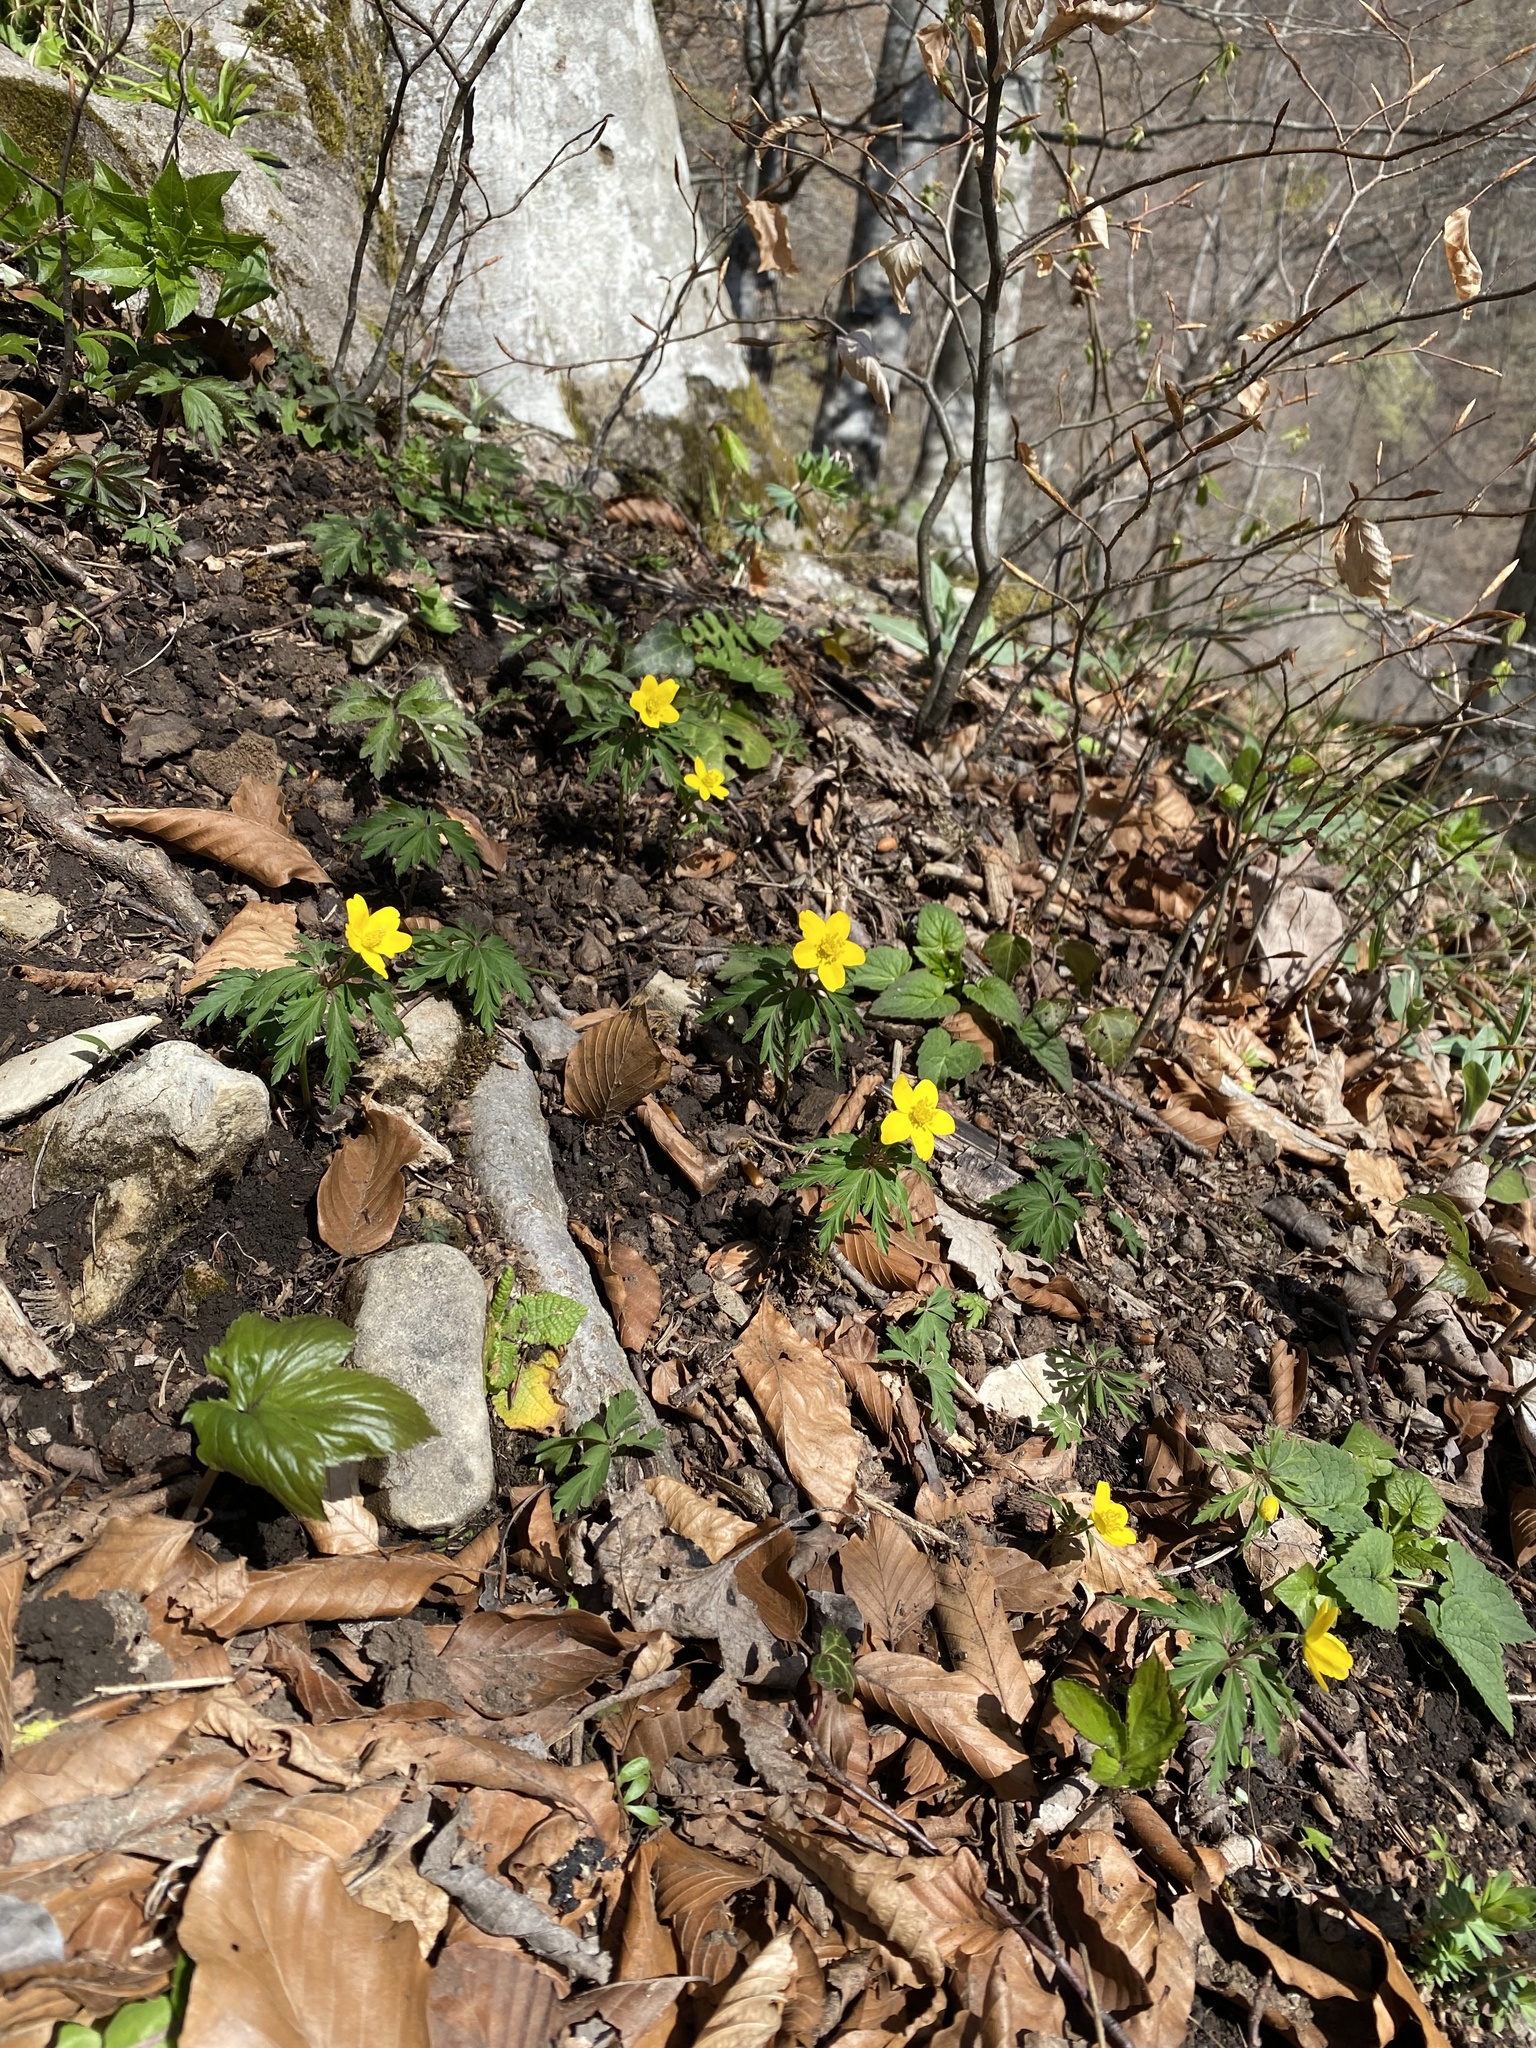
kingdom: Plantae
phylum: Tracheophyta
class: Magnoliopsida
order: Ranunculales
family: Ranunculaceae
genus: Anemone
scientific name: Anemone ranunculoides
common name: Yellow anemone
